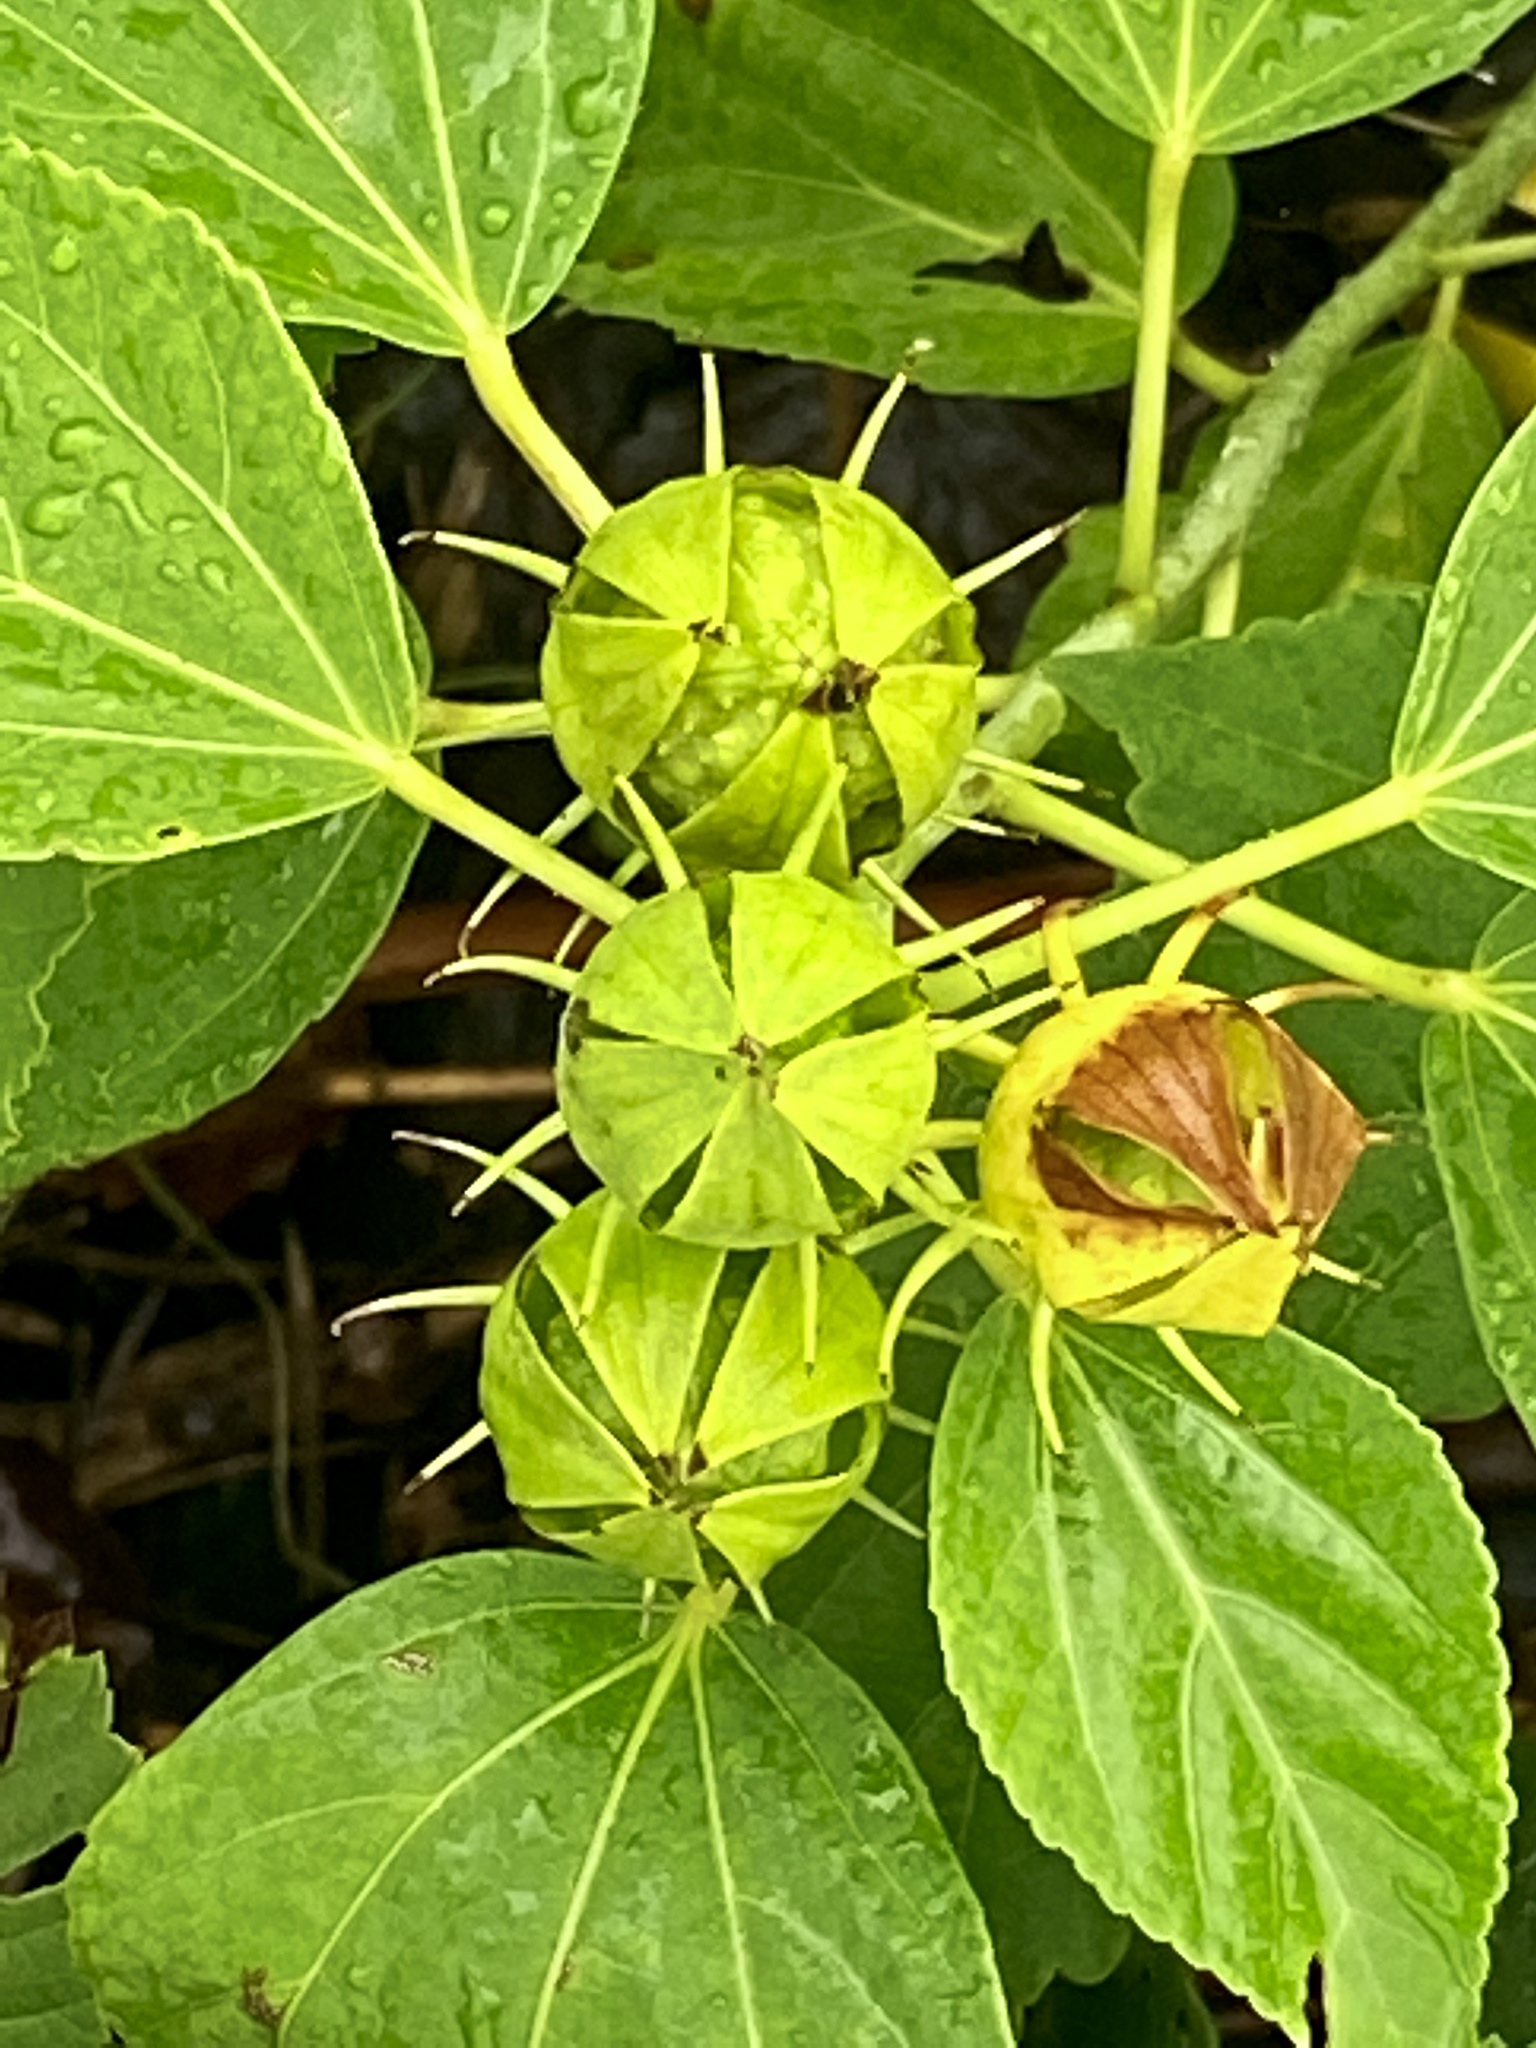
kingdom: Plantae
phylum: Tracheophyta
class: Magnoliopsida
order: Malvales
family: Malvaceae
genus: Hibiscus
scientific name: Hibiscus moscheutos
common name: Common rose-mallow
